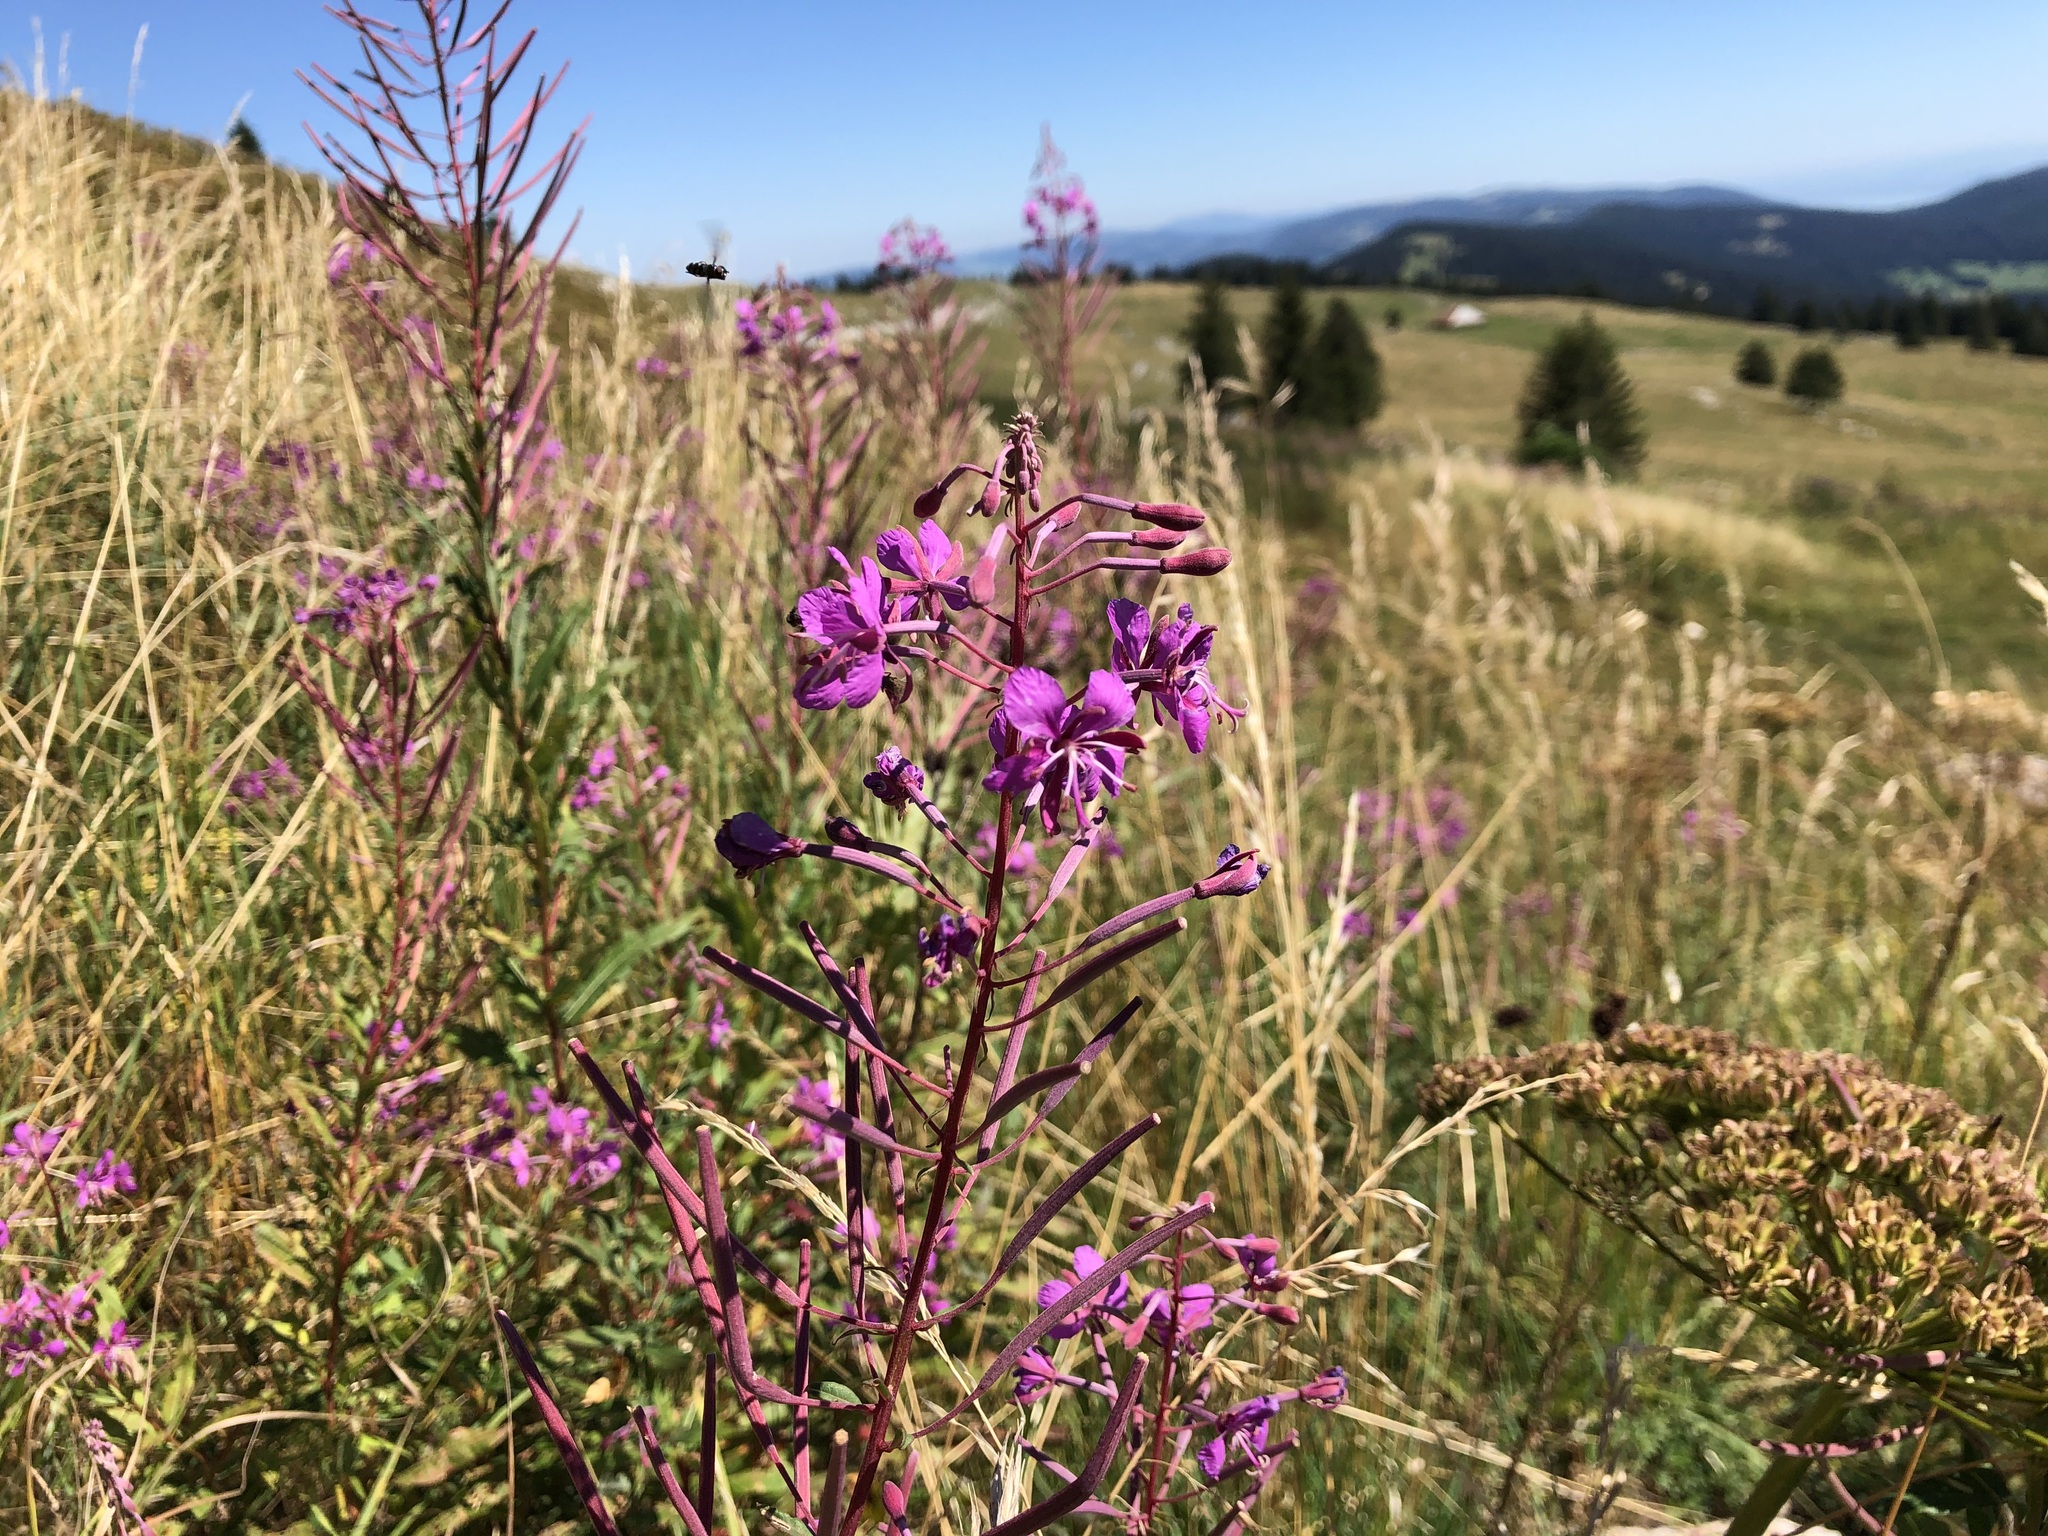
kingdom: Plantae
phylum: Tracheophyta
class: Magnoliopsida
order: Myrtales
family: Onagraceae
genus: Chamaenerion
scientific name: Chamaenerion angustifolium
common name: Fireweed
